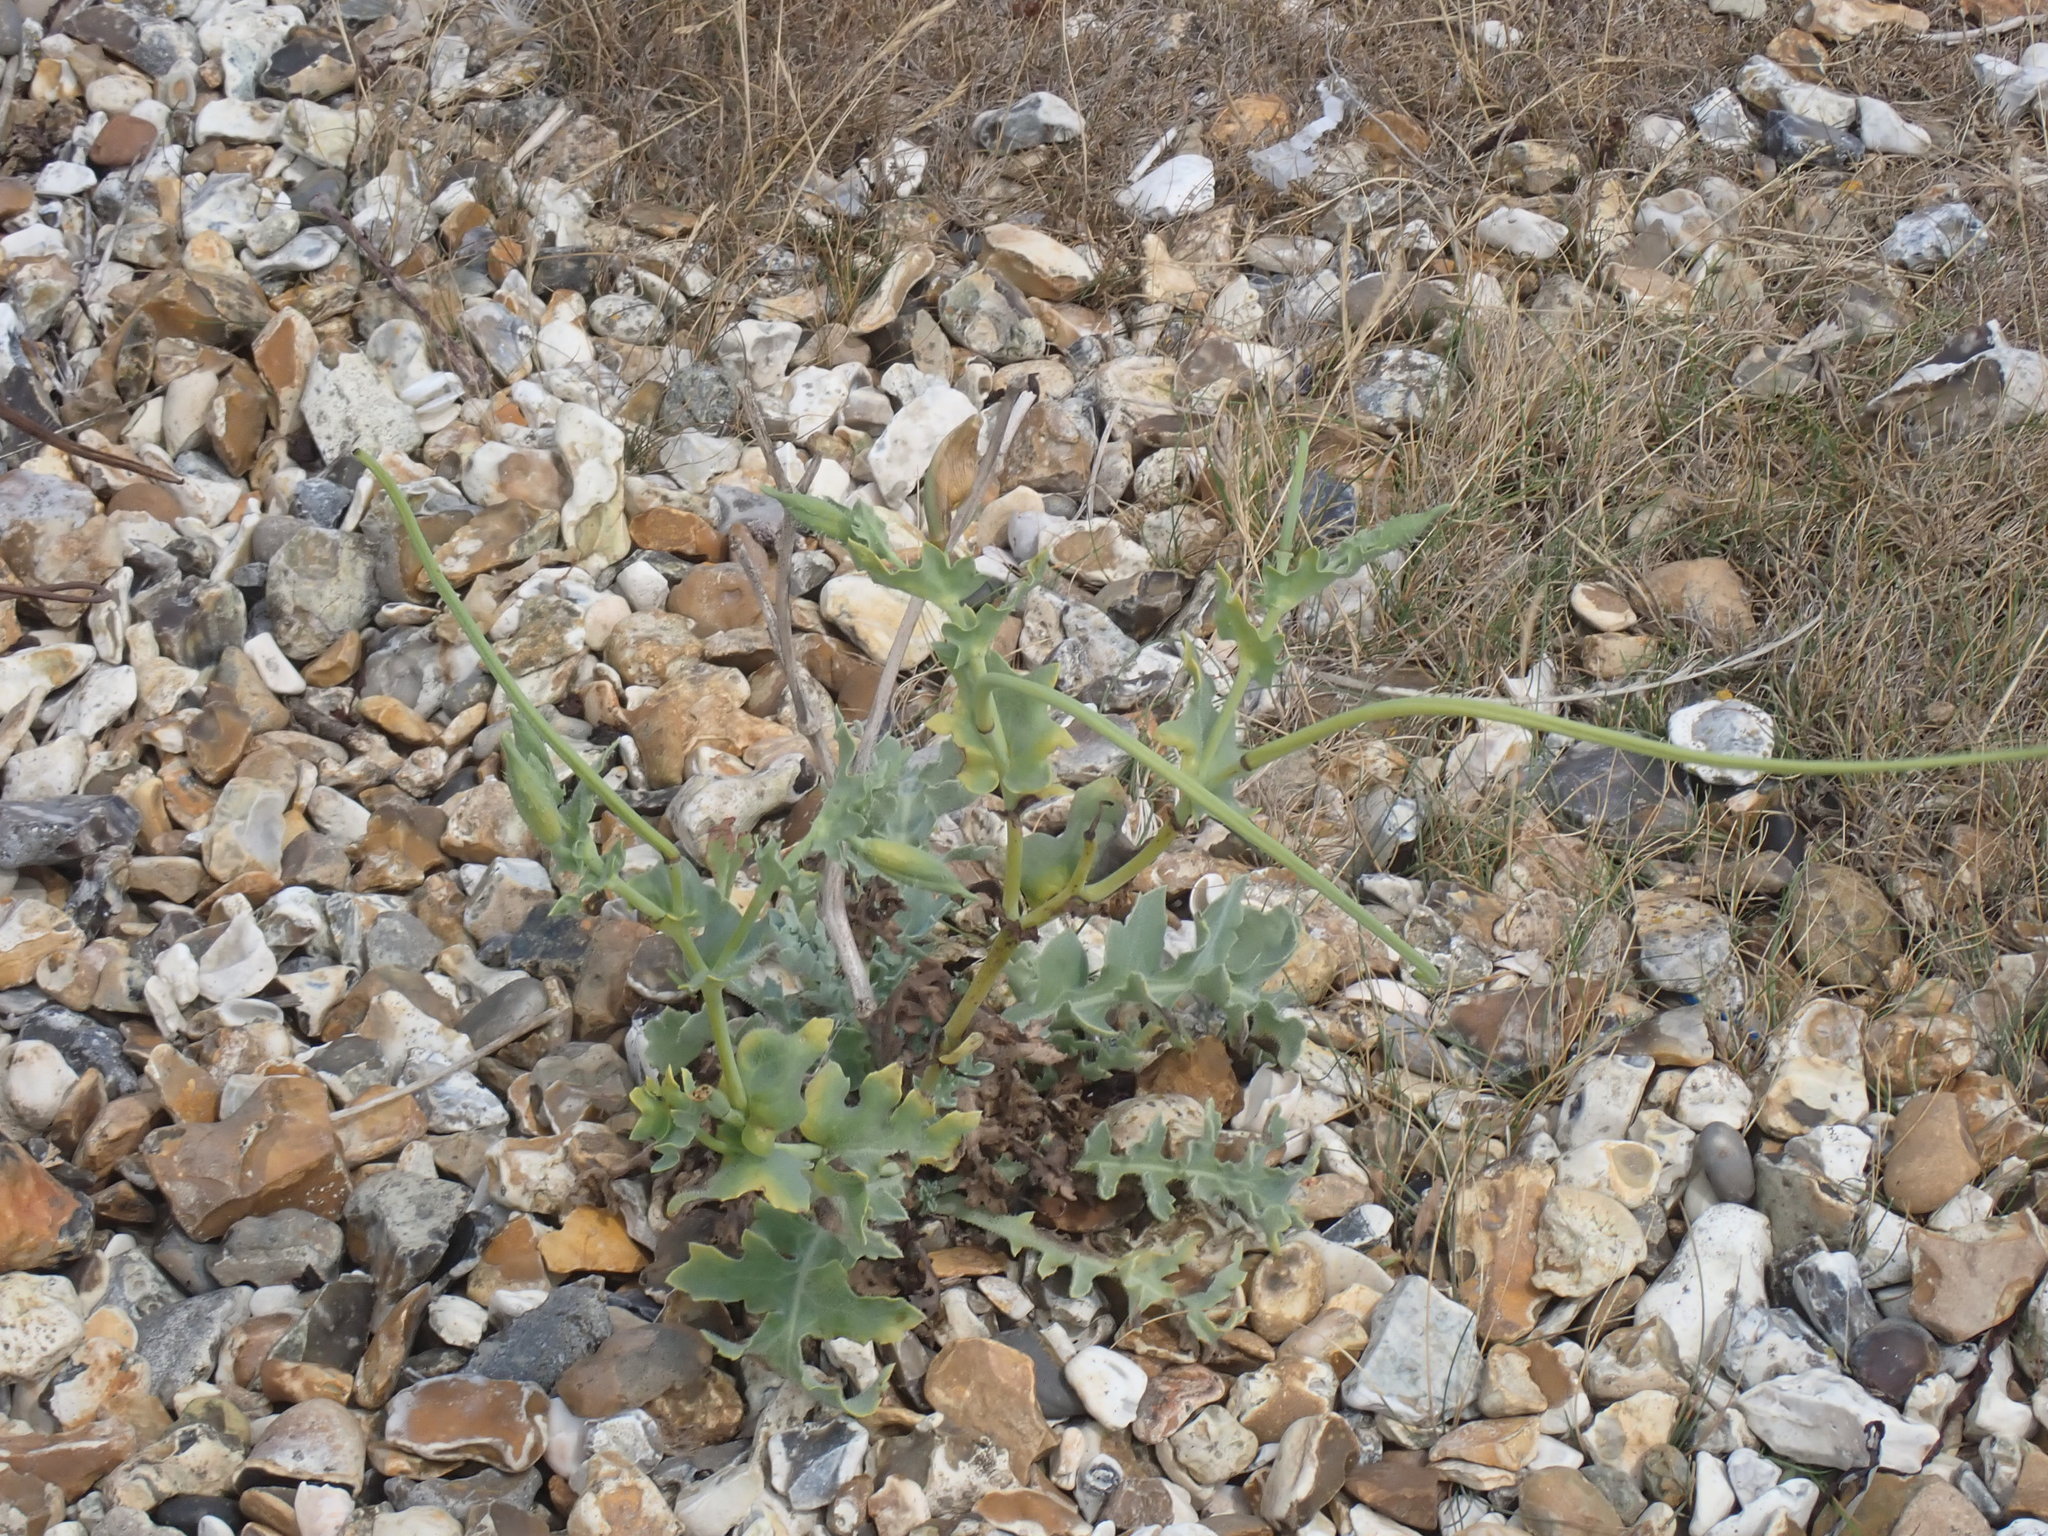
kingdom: Plantae
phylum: Tracheophyta
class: Magnoliopsida
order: Ranunculales
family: Papaveraceae
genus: Glaucium
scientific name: Glaucium flavum
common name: Yellow horned-poppy
